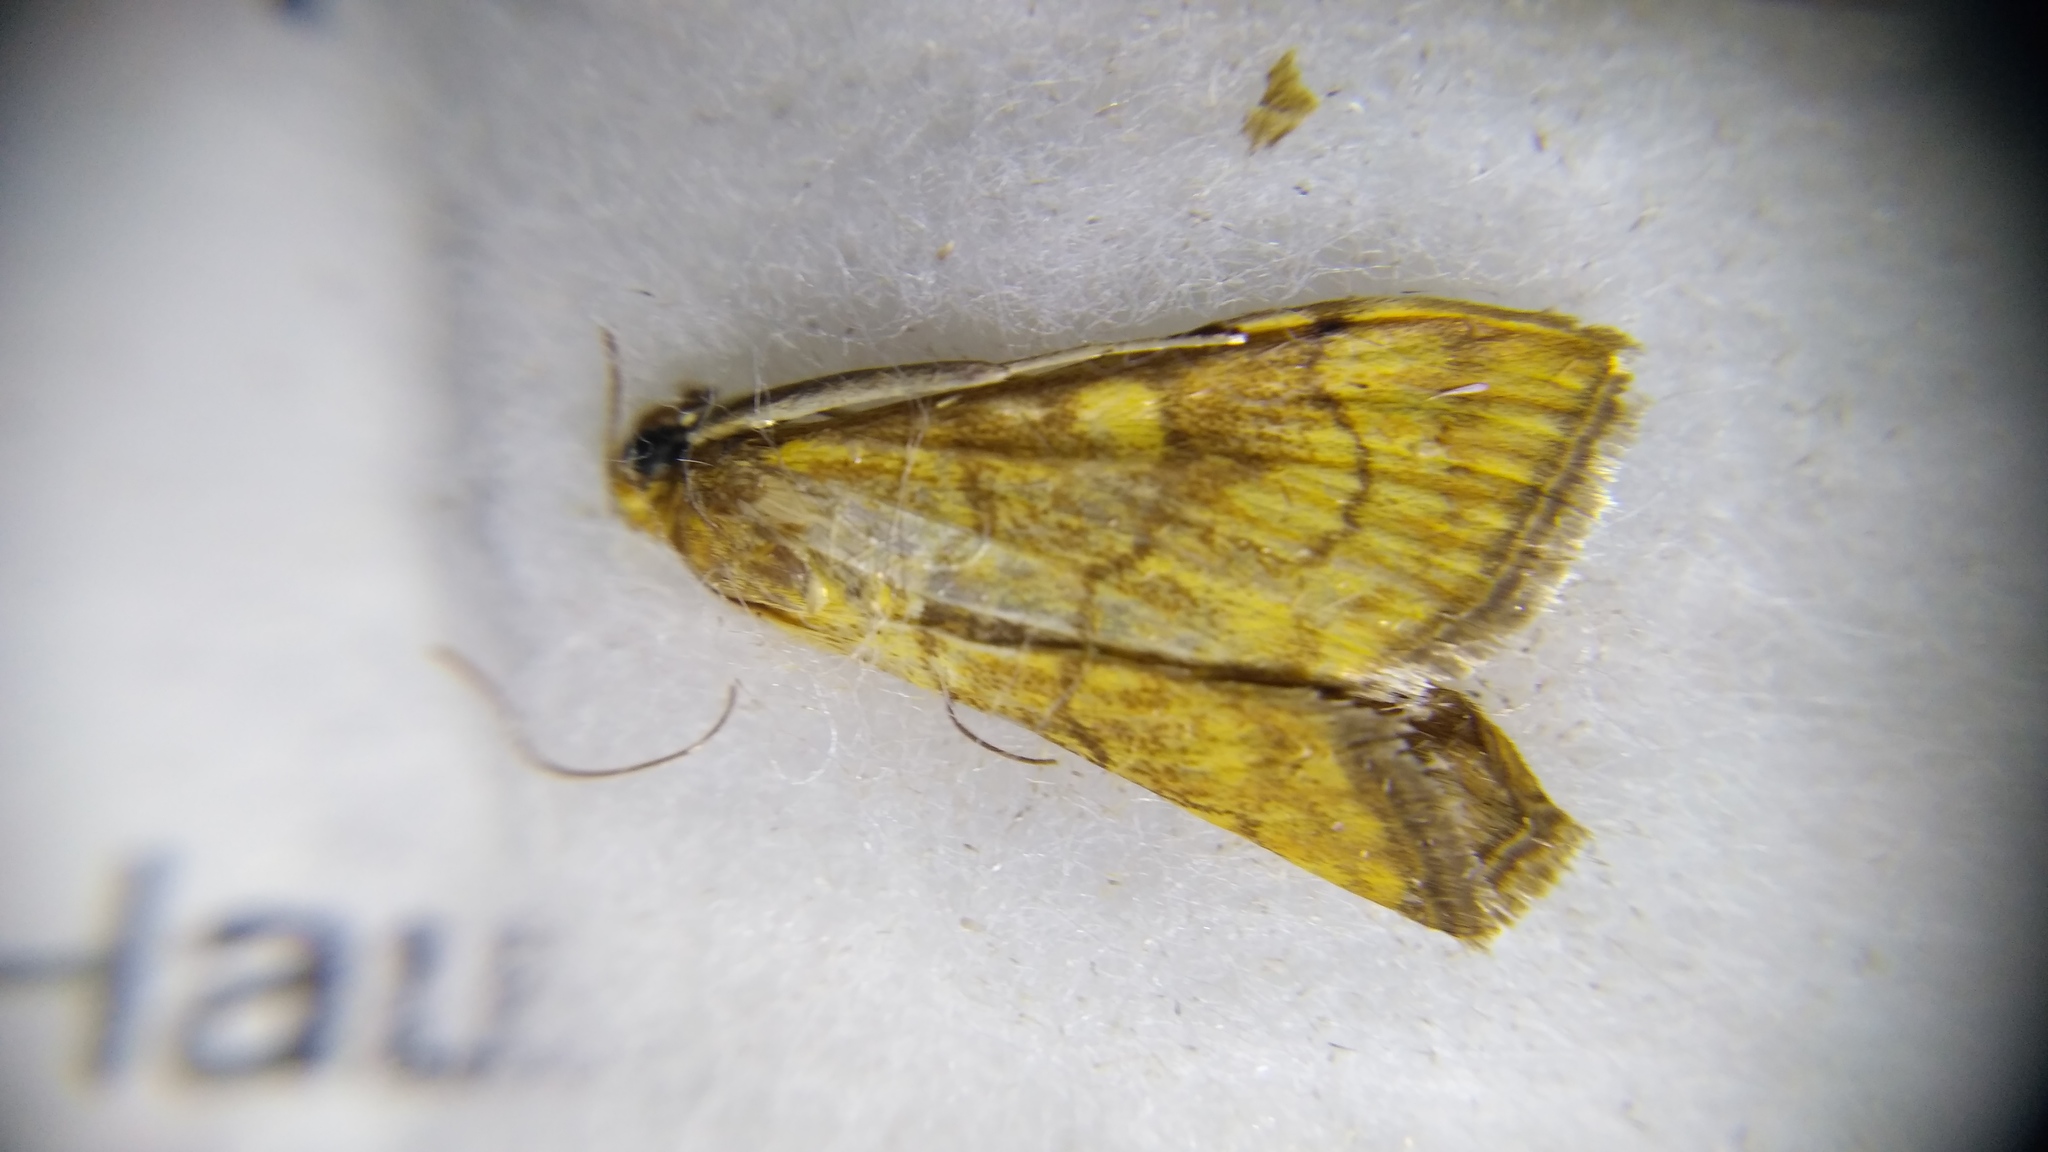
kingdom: Animalia
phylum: Arthropoda
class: Insecta
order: Lepidoptera
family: Crambidae
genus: Anania
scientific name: Anania verbascalis
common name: Golden pearl
